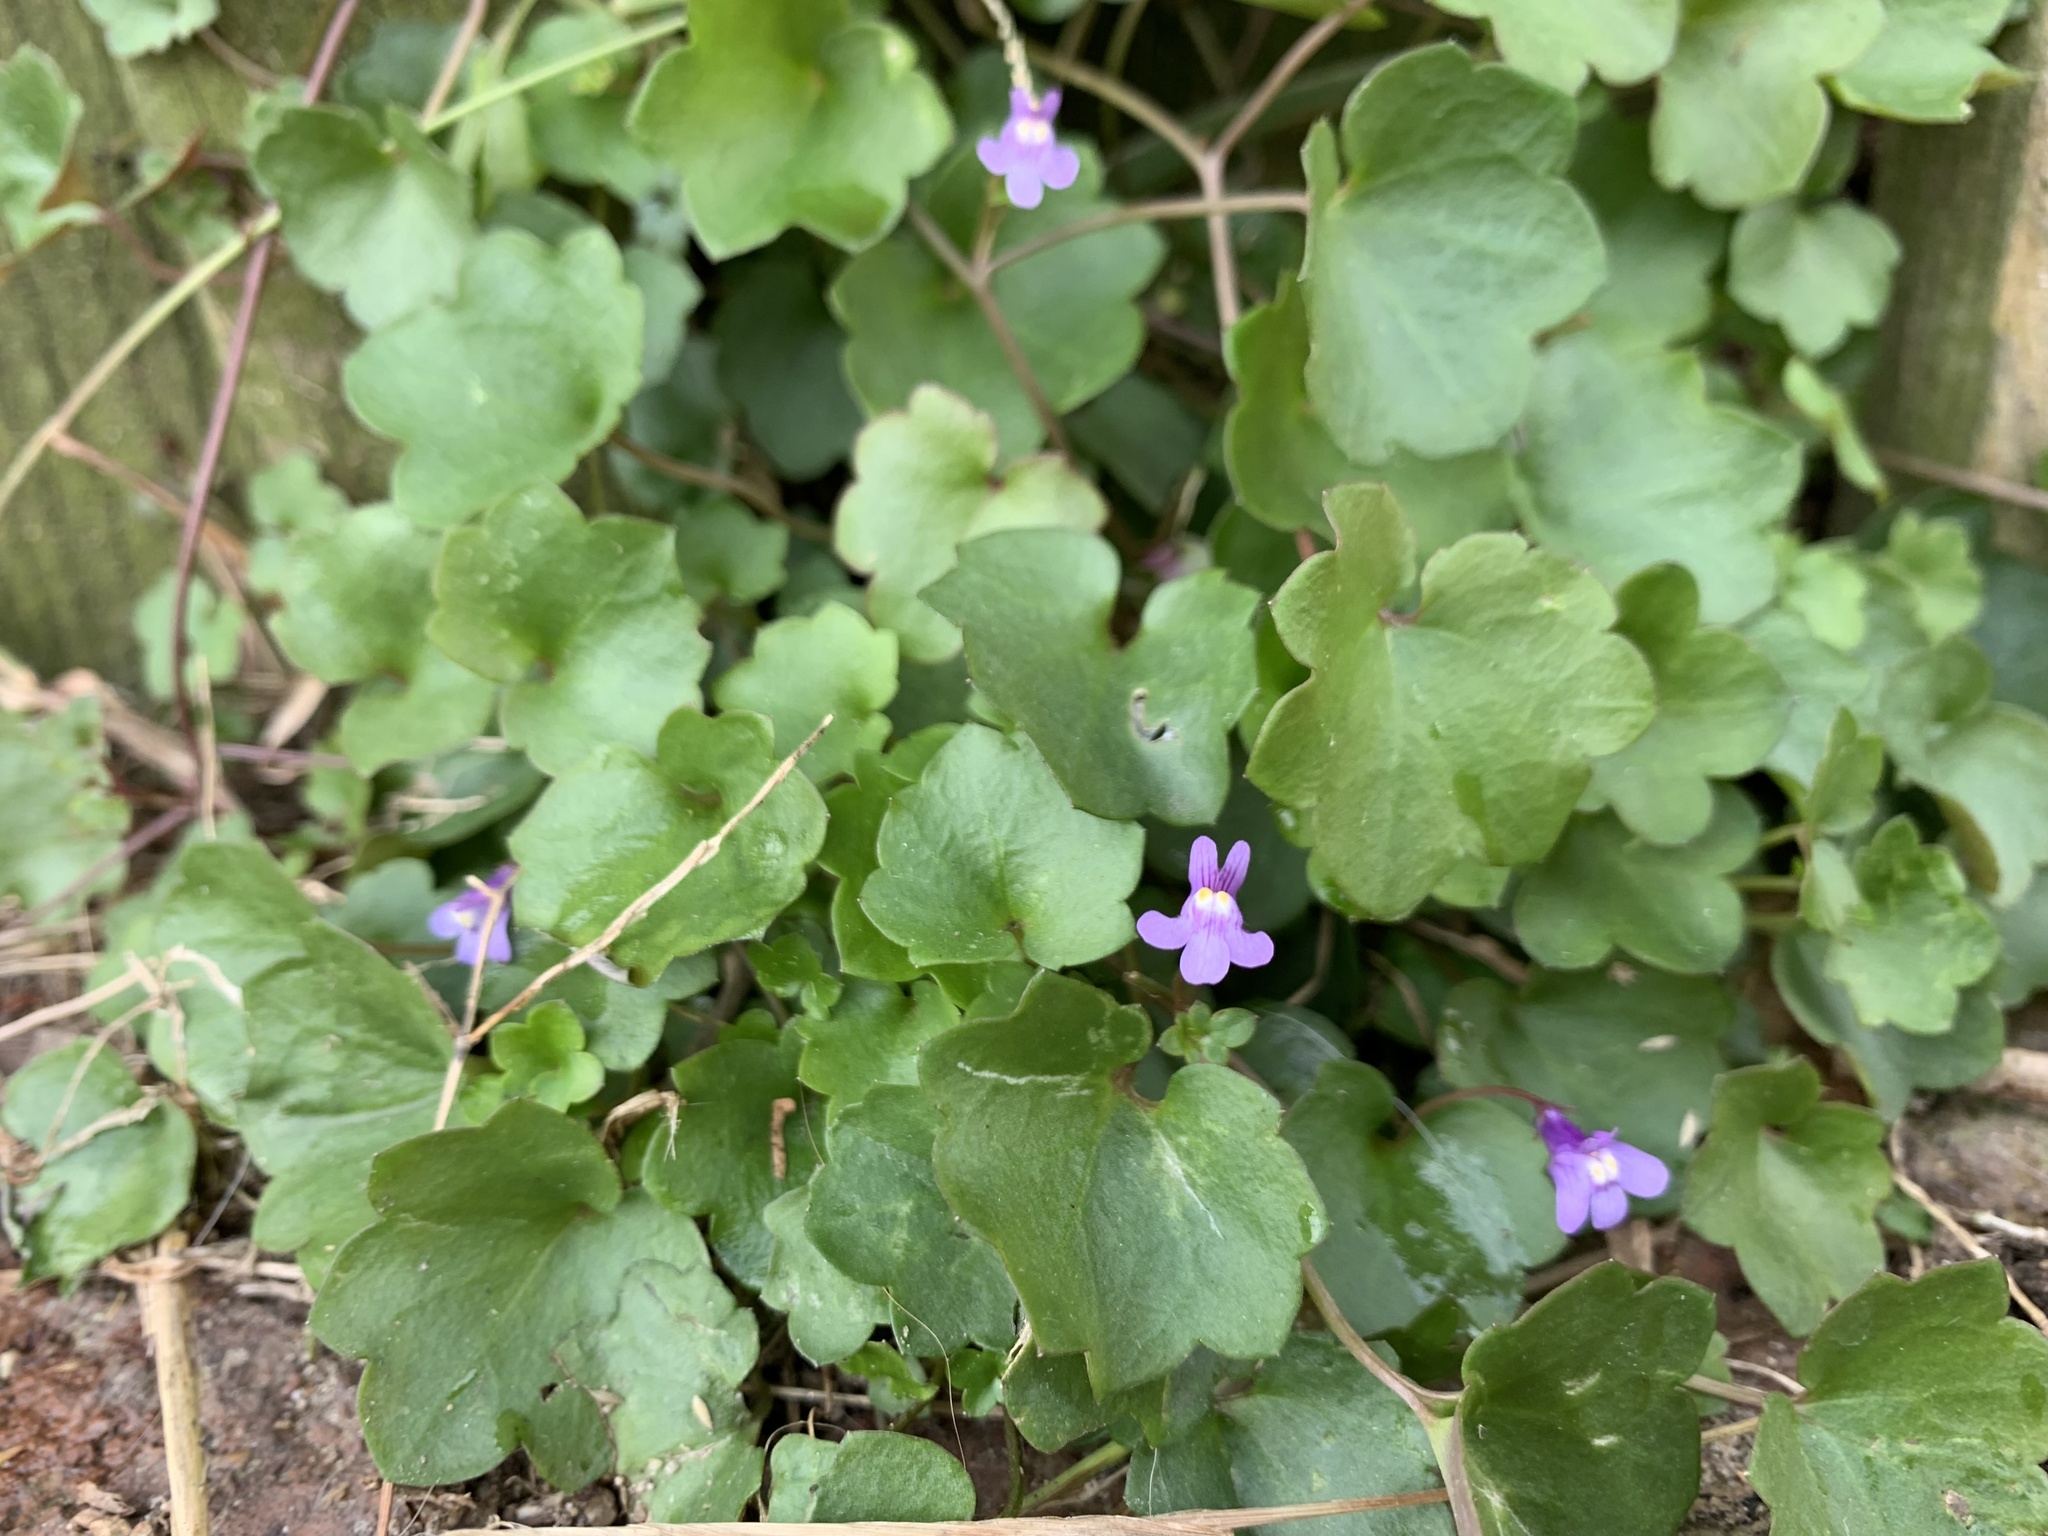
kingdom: Plantae
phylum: Tracheophyta
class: Magnoliopsida
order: Lamiales
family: Plantaginaceae
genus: Cymbalaria
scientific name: Cymbalaria muralis
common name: Ivy-leaved toadflax
